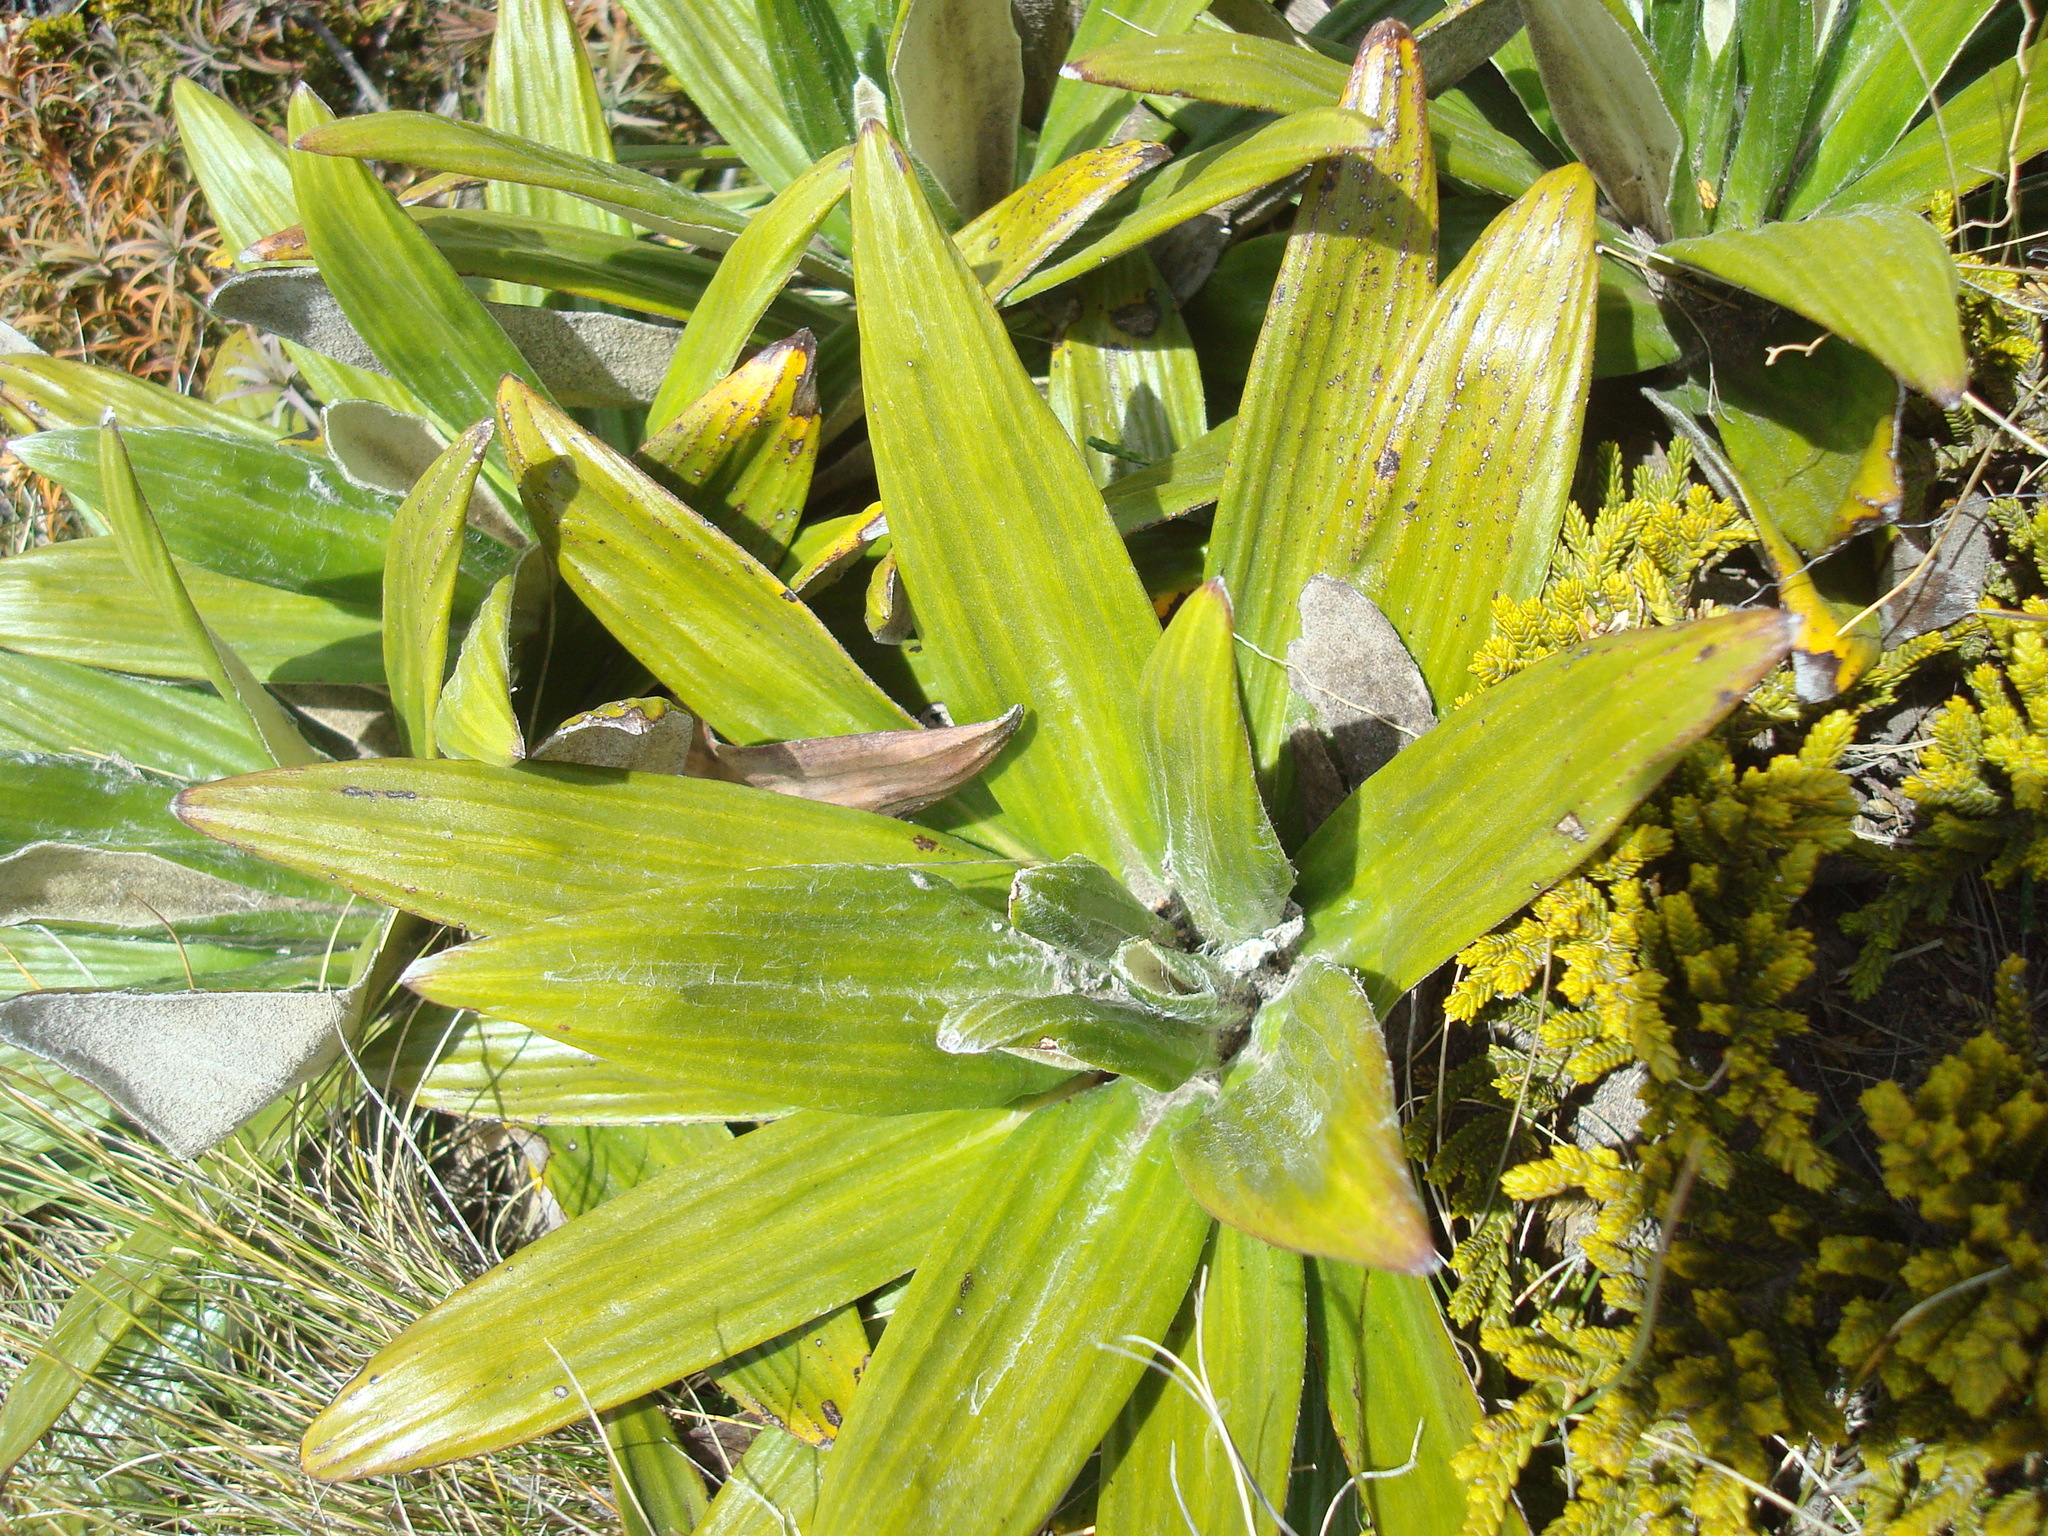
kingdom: Plantae
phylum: Tracheophyta
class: Magnoliopsida
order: Asterales
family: Asteraceae
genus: Celmisia
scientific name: Celmisia spectabilis
